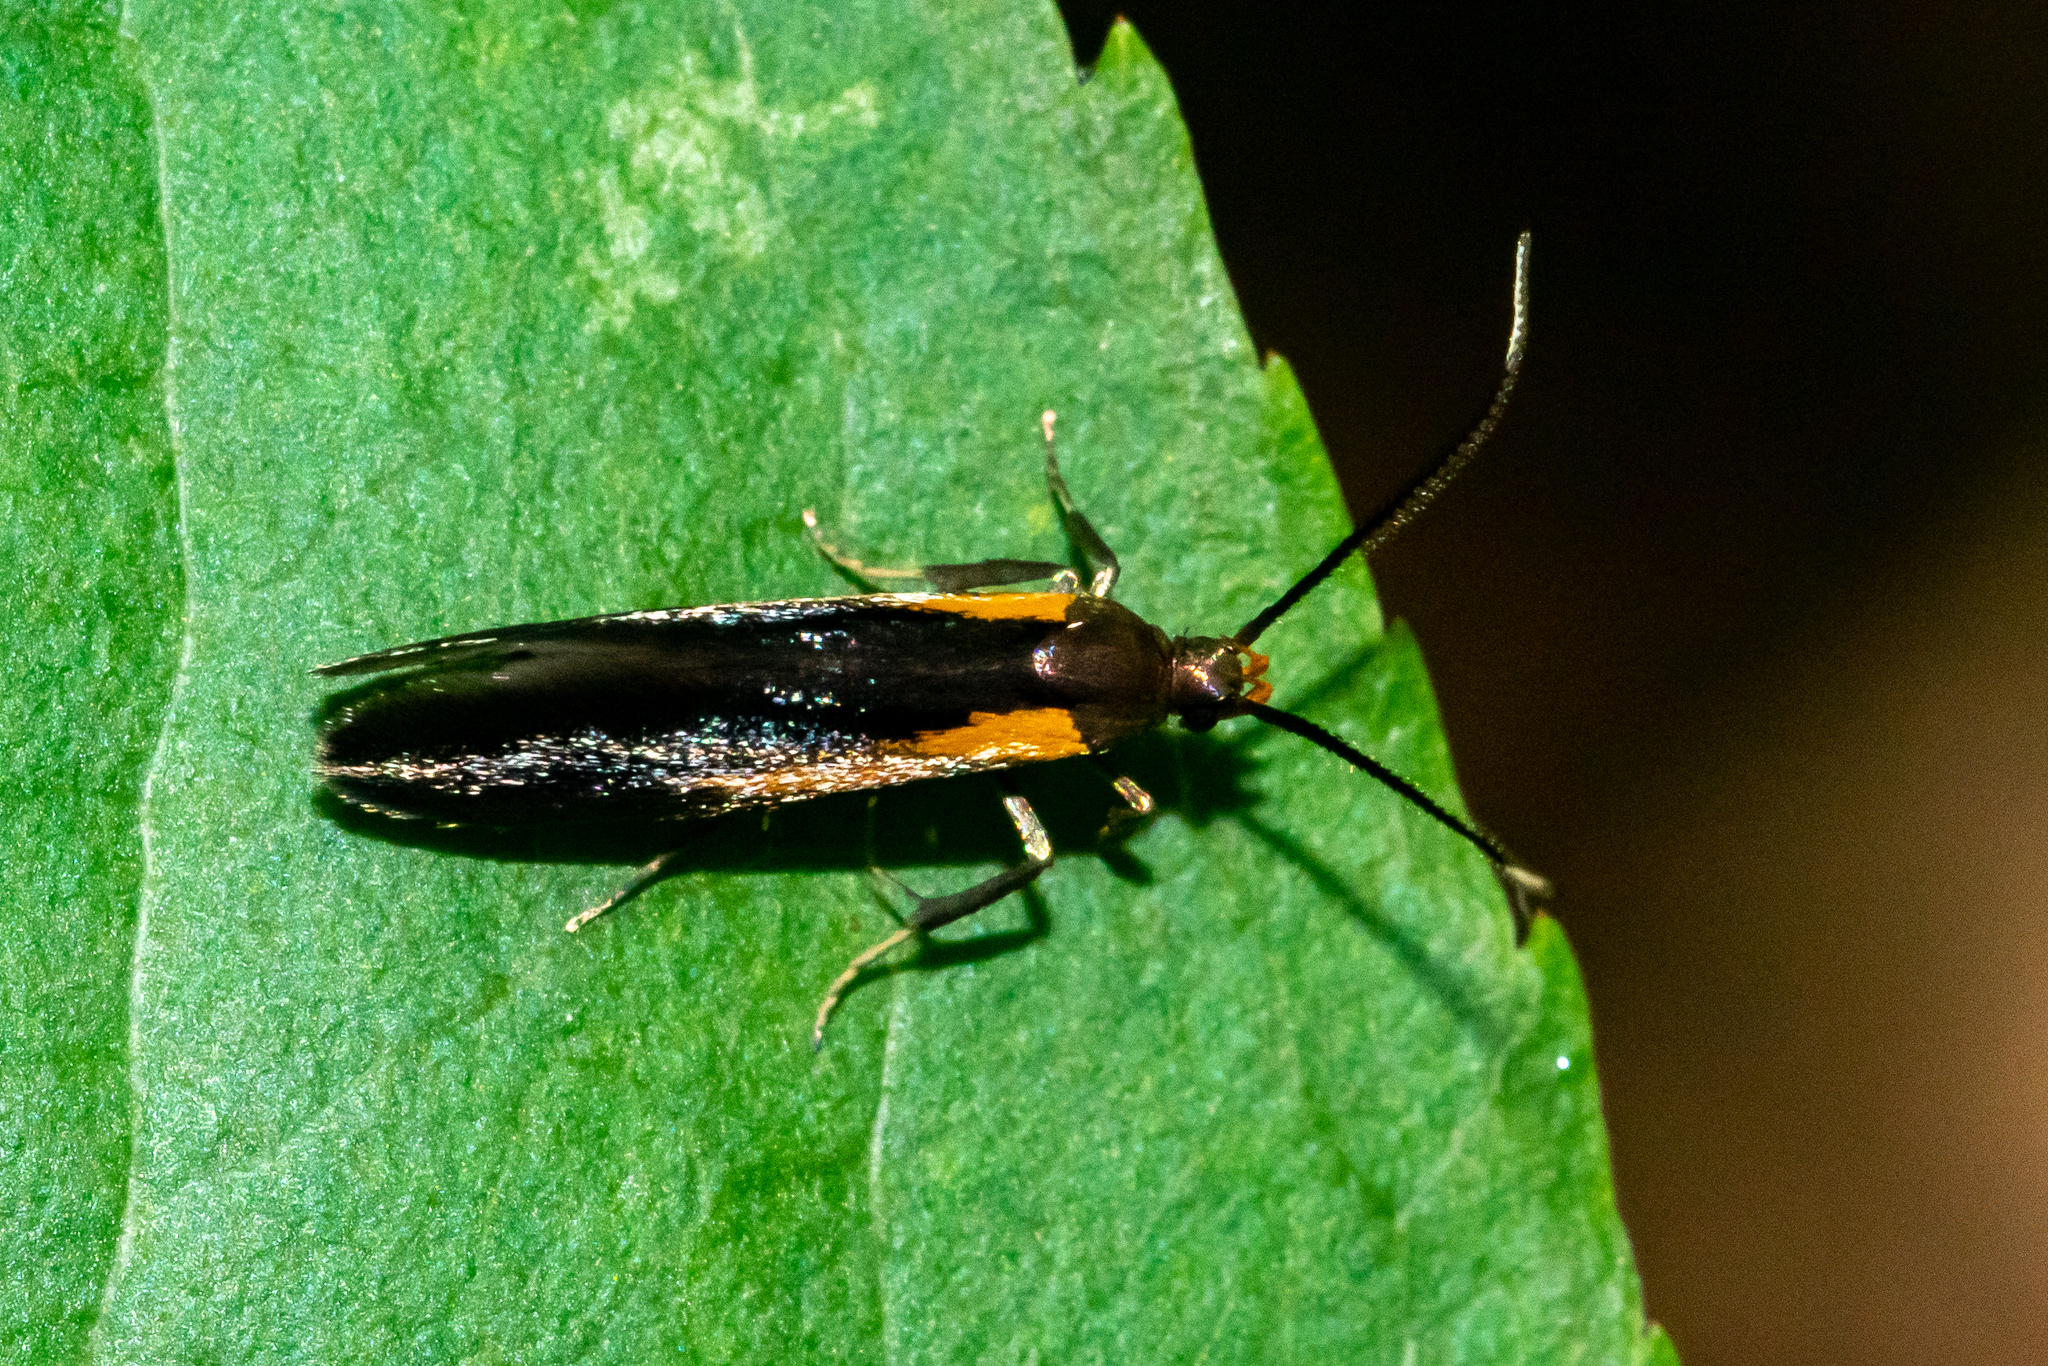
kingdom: Animalia
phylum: Arthropoda
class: Insecta
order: Lepidoptera
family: Oecophoridae
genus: Mathildana
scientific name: Mathildana newmanella
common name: Newman's mathildana moth
